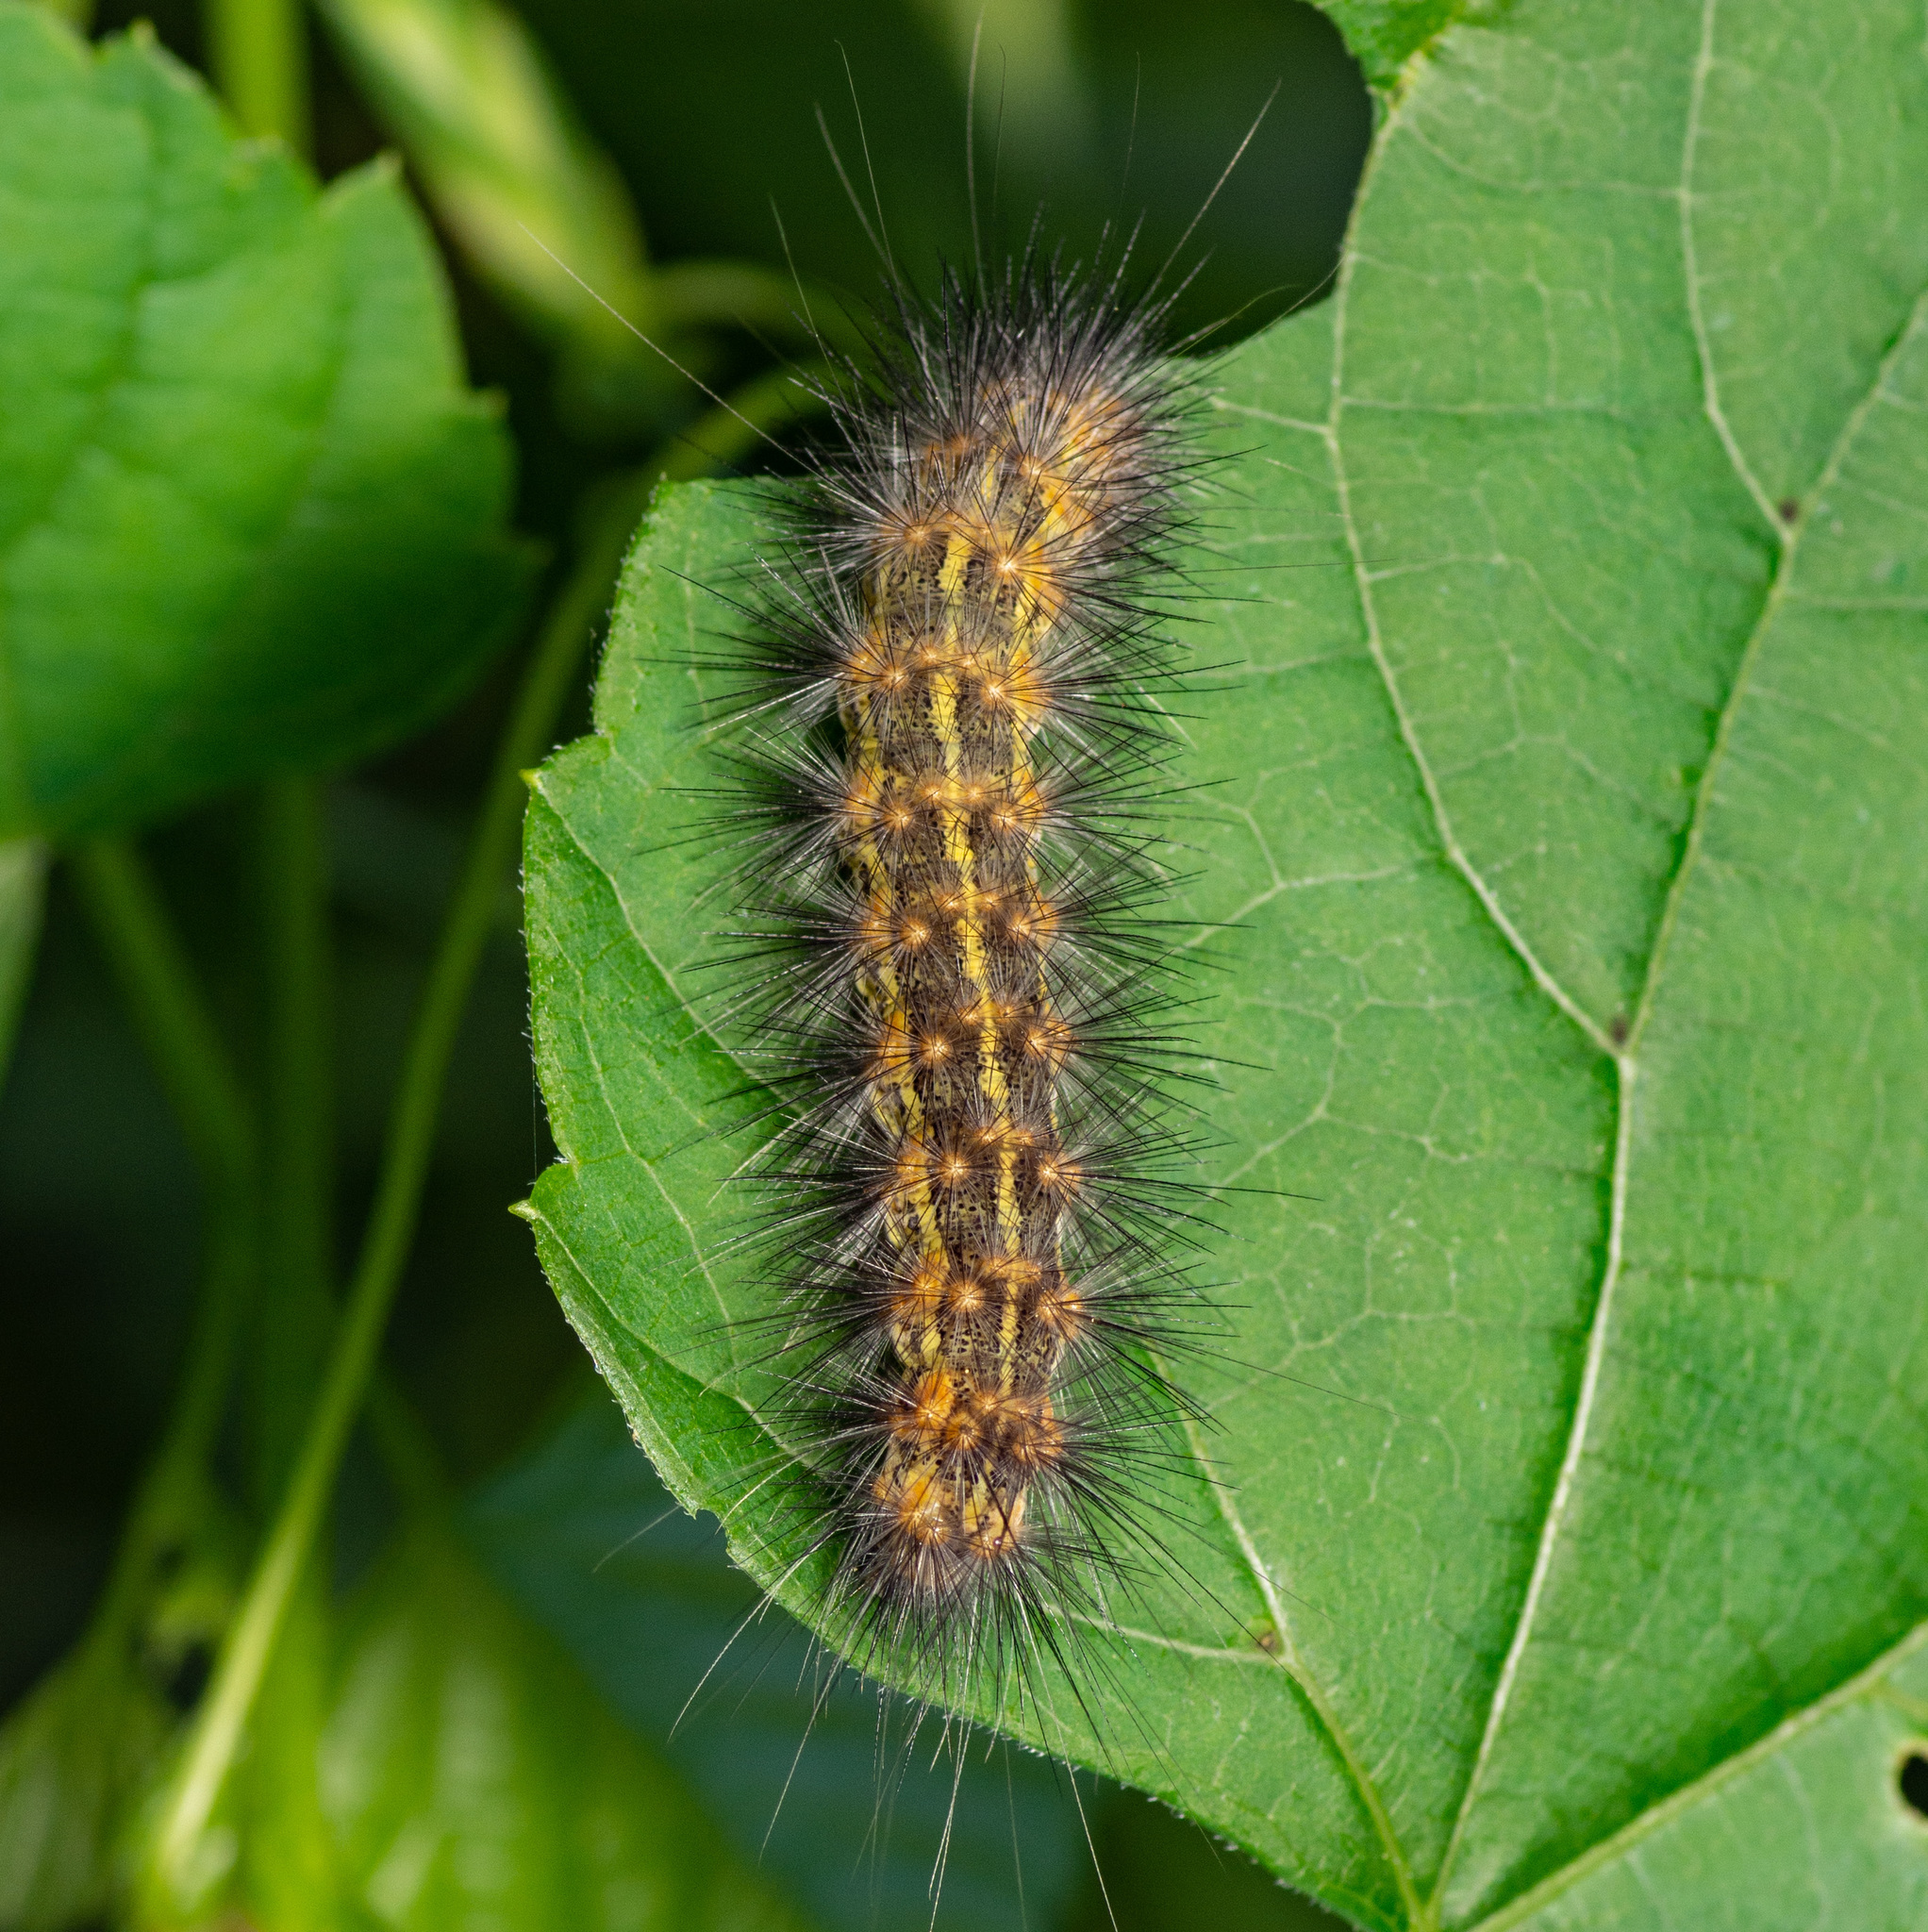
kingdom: Animalia
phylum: Arthropoda
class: Insecta
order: Lepidoptera
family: Erebidae
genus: Estigmene
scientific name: Estigmene acrea
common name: Salt marsh moth
